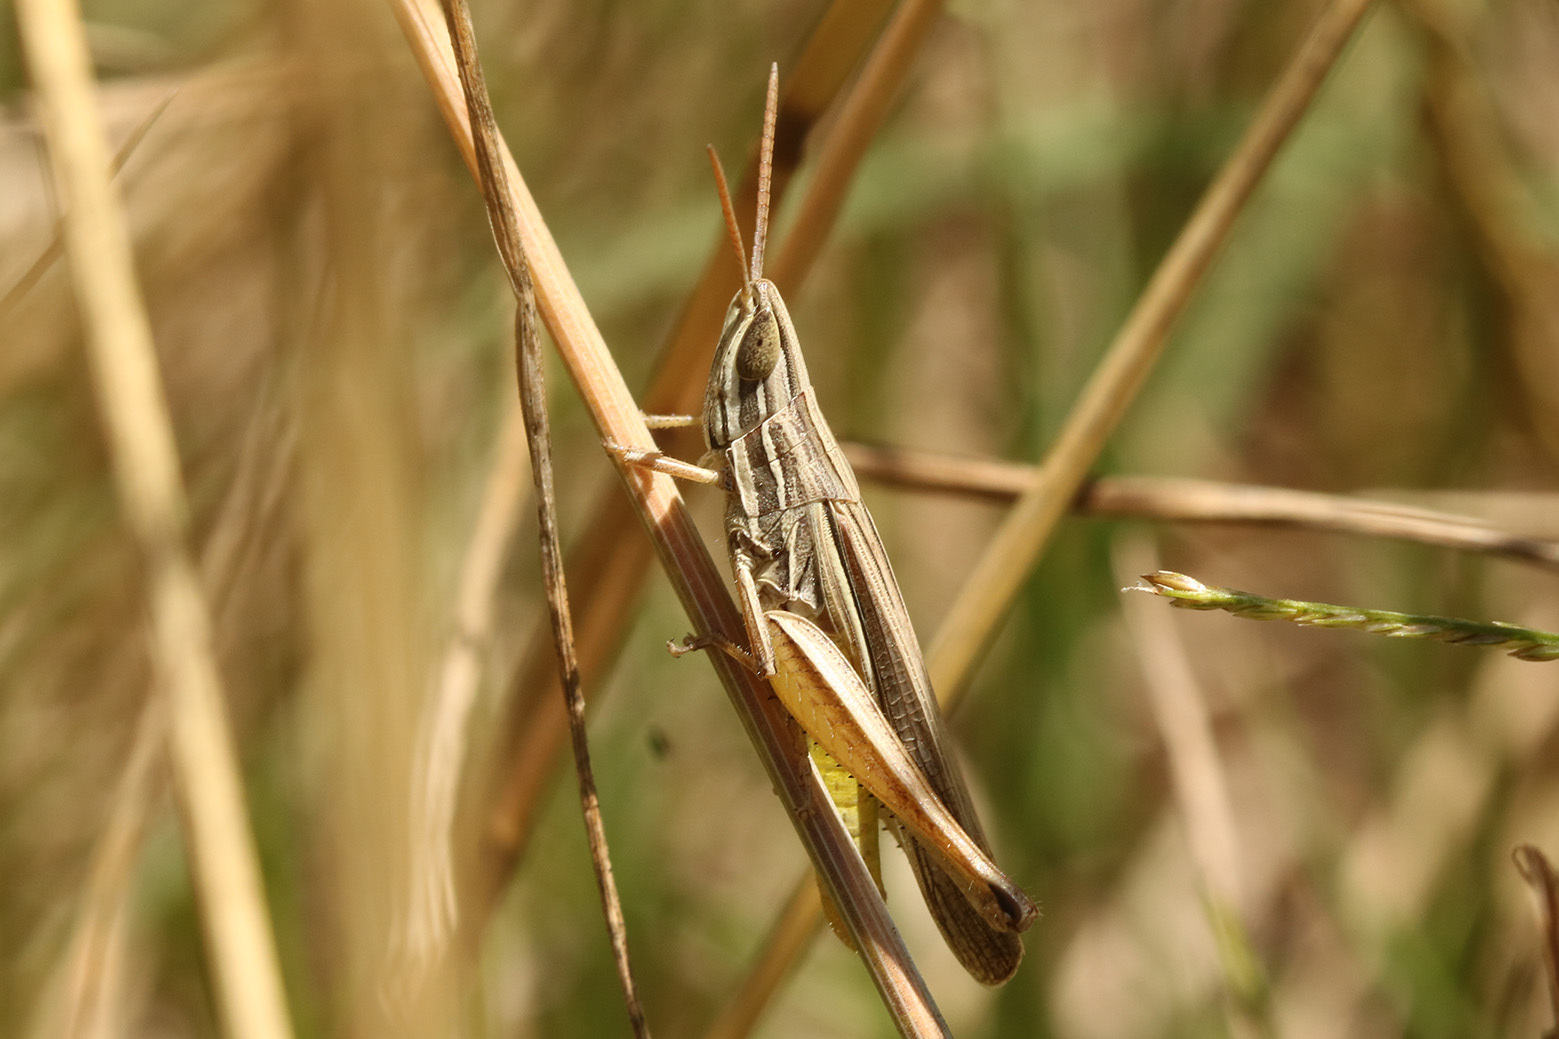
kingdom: Animalia
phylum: Arthropoda
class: Insecta
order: Orthoptera
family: Acrididae
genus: Sinipta
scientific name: Sinipta dalmani
